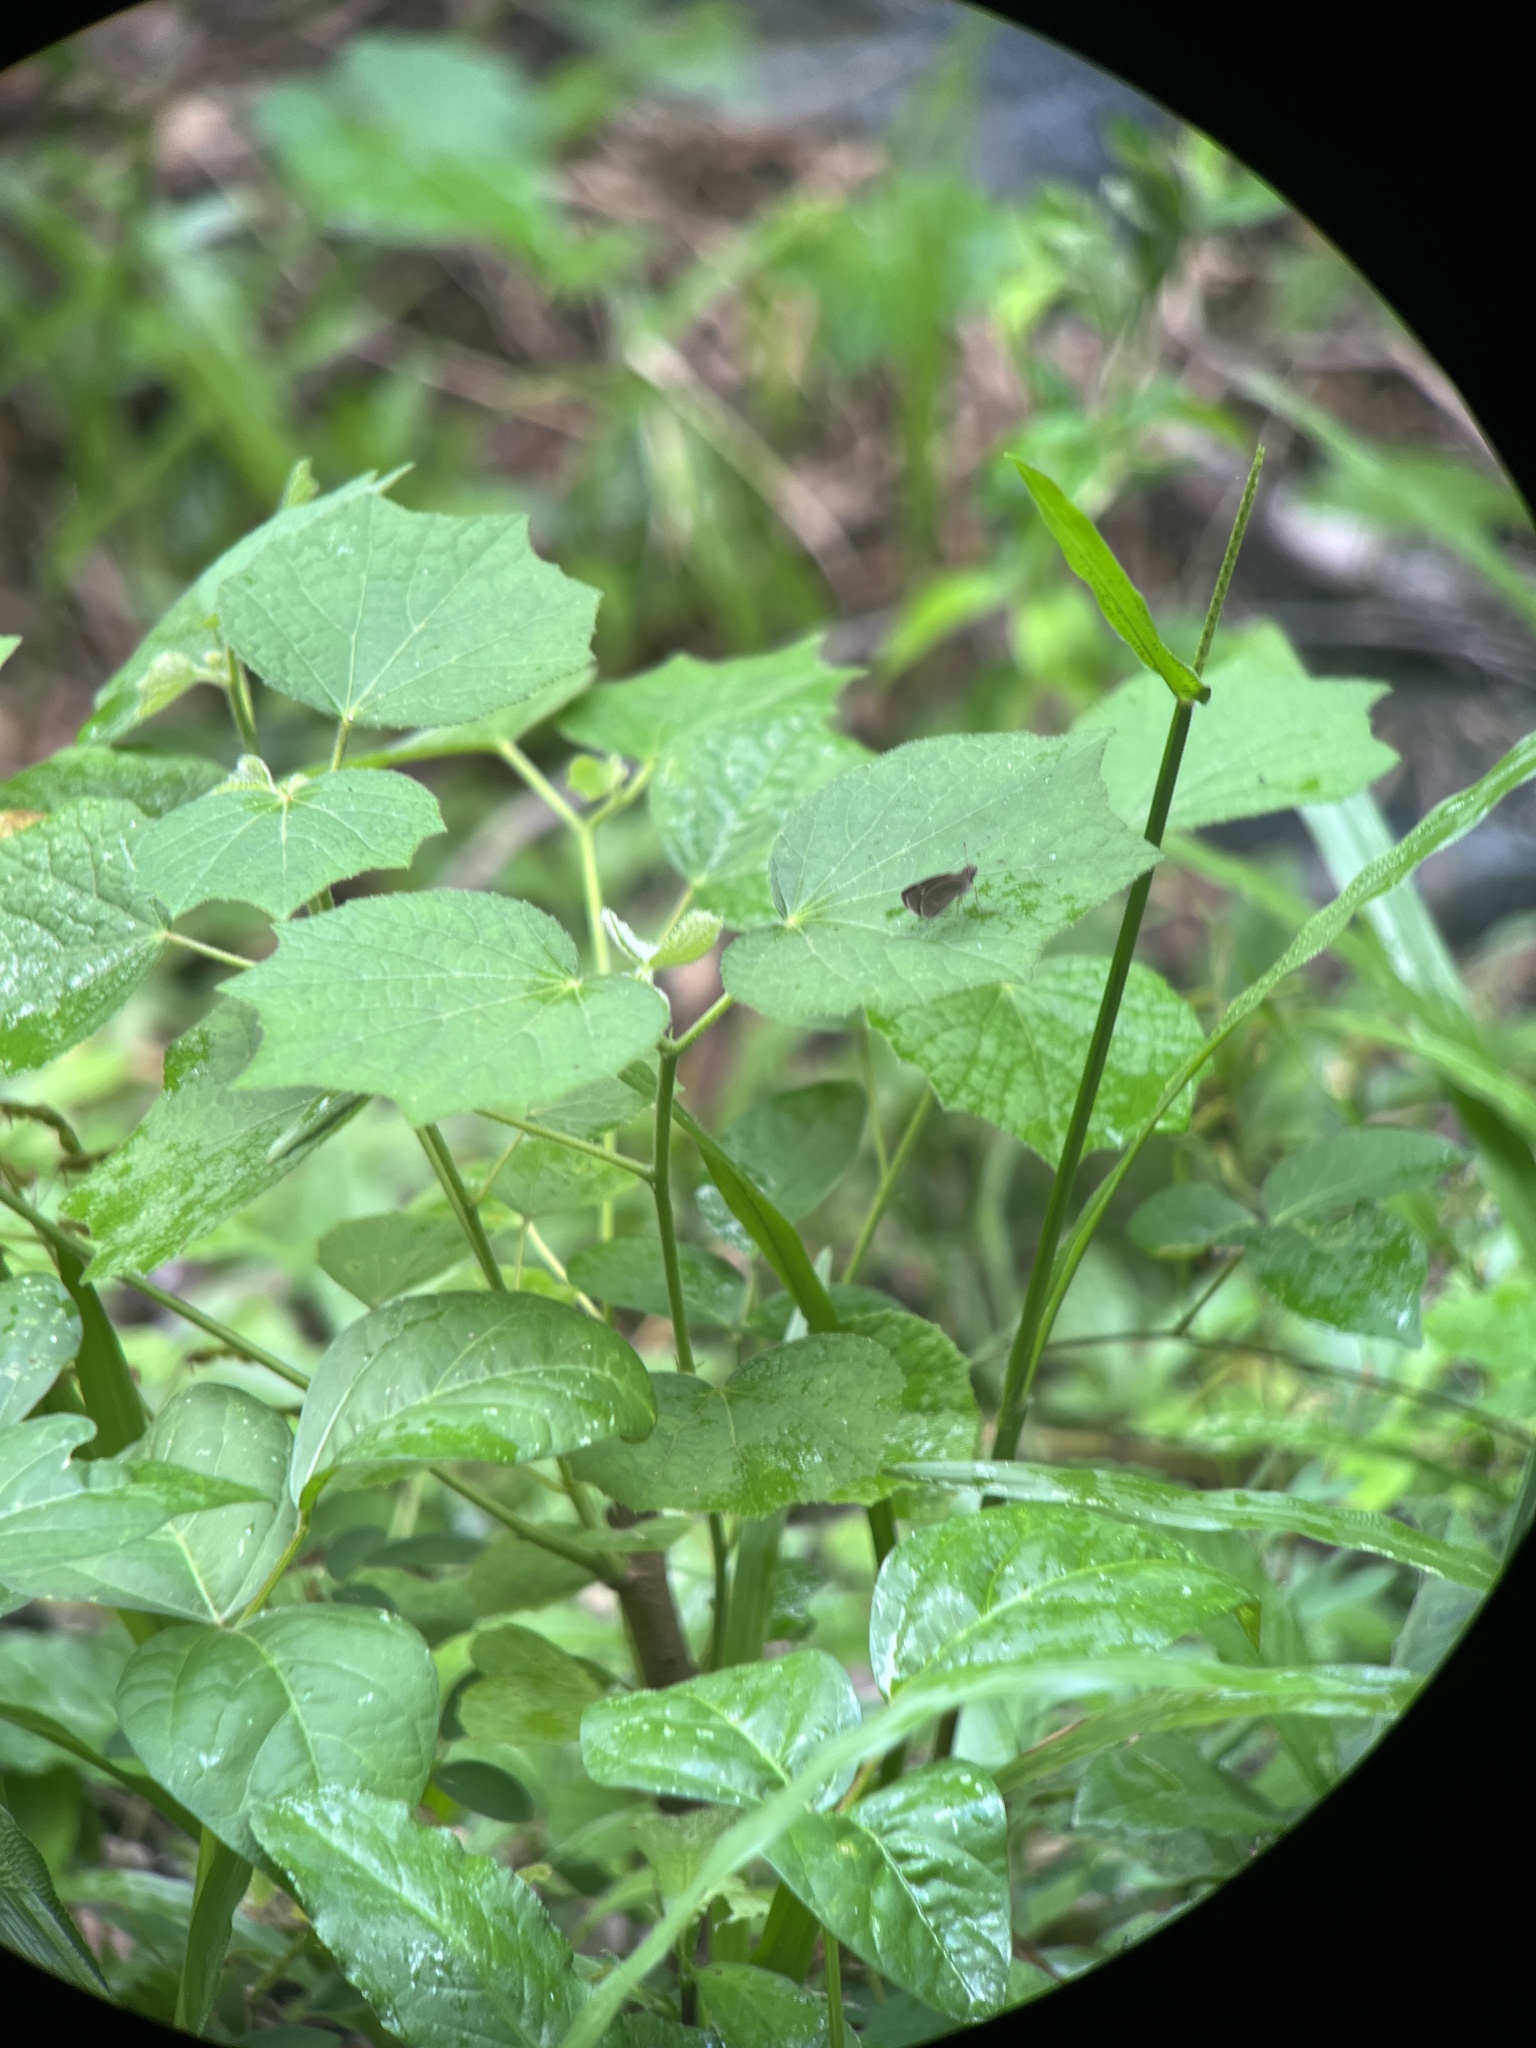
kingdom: Plantae
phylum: Tracheophyta
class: Magnoliopsida
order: Malvales
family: Malvaceae
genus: Urena
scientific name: Urena lobata
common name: Caesarweed
